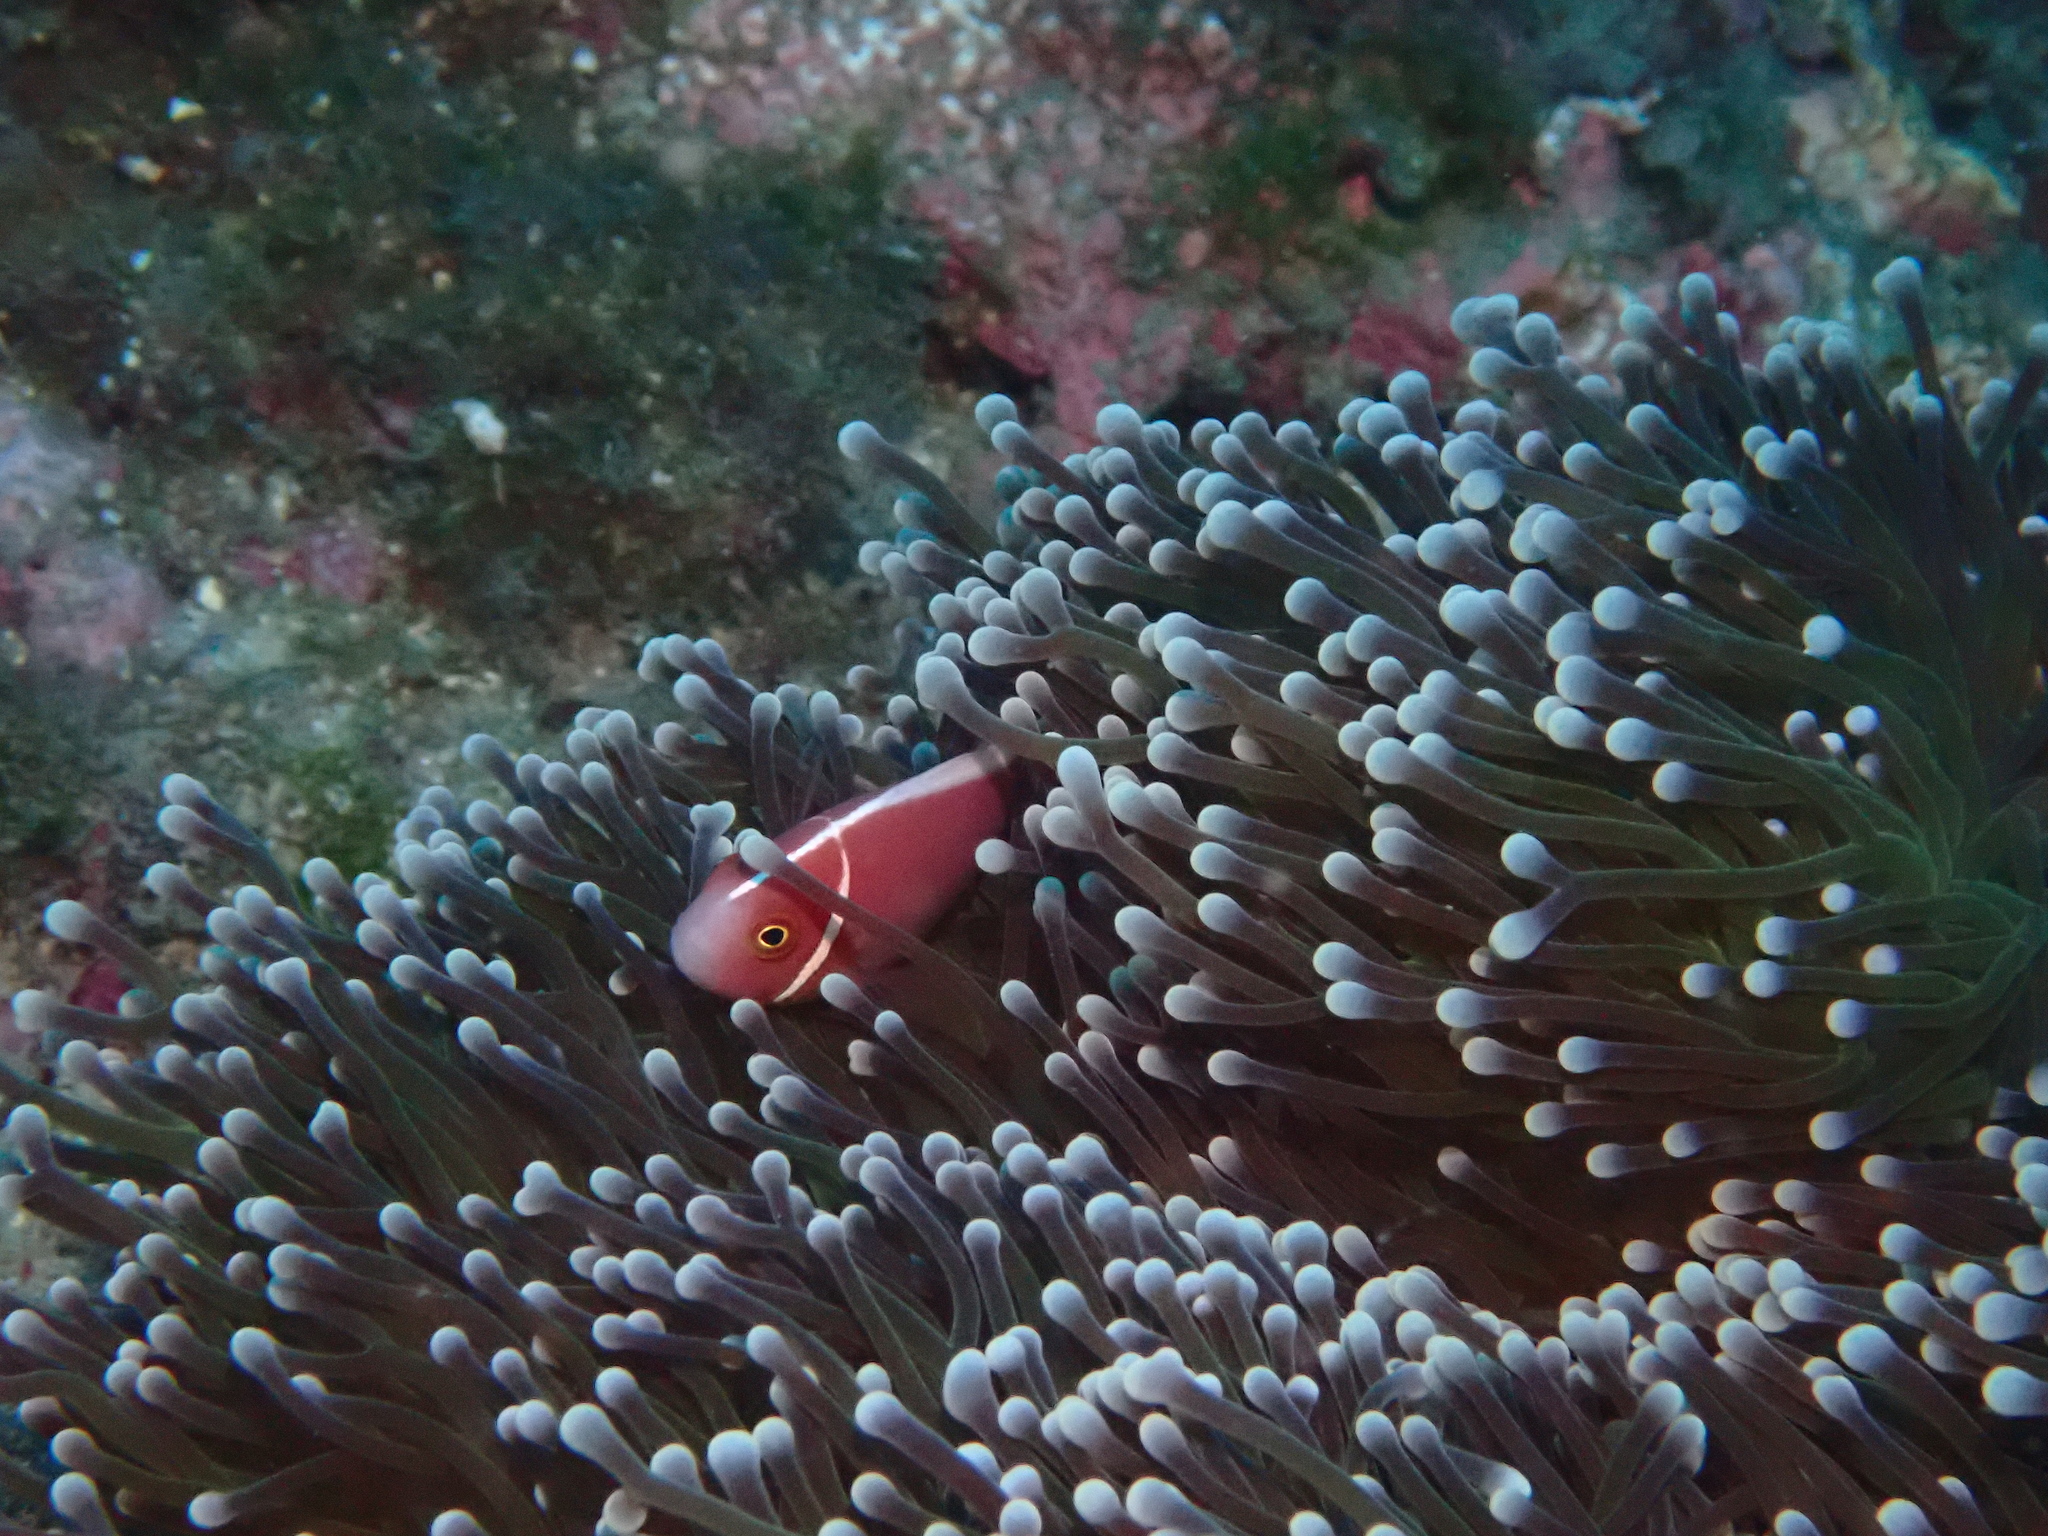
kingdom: Animalia
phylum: Chordata
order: Perciformes
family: Pomacentridae
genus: Amphiprion
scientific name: Amphiprion perideraion
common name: Pink anemonefish
